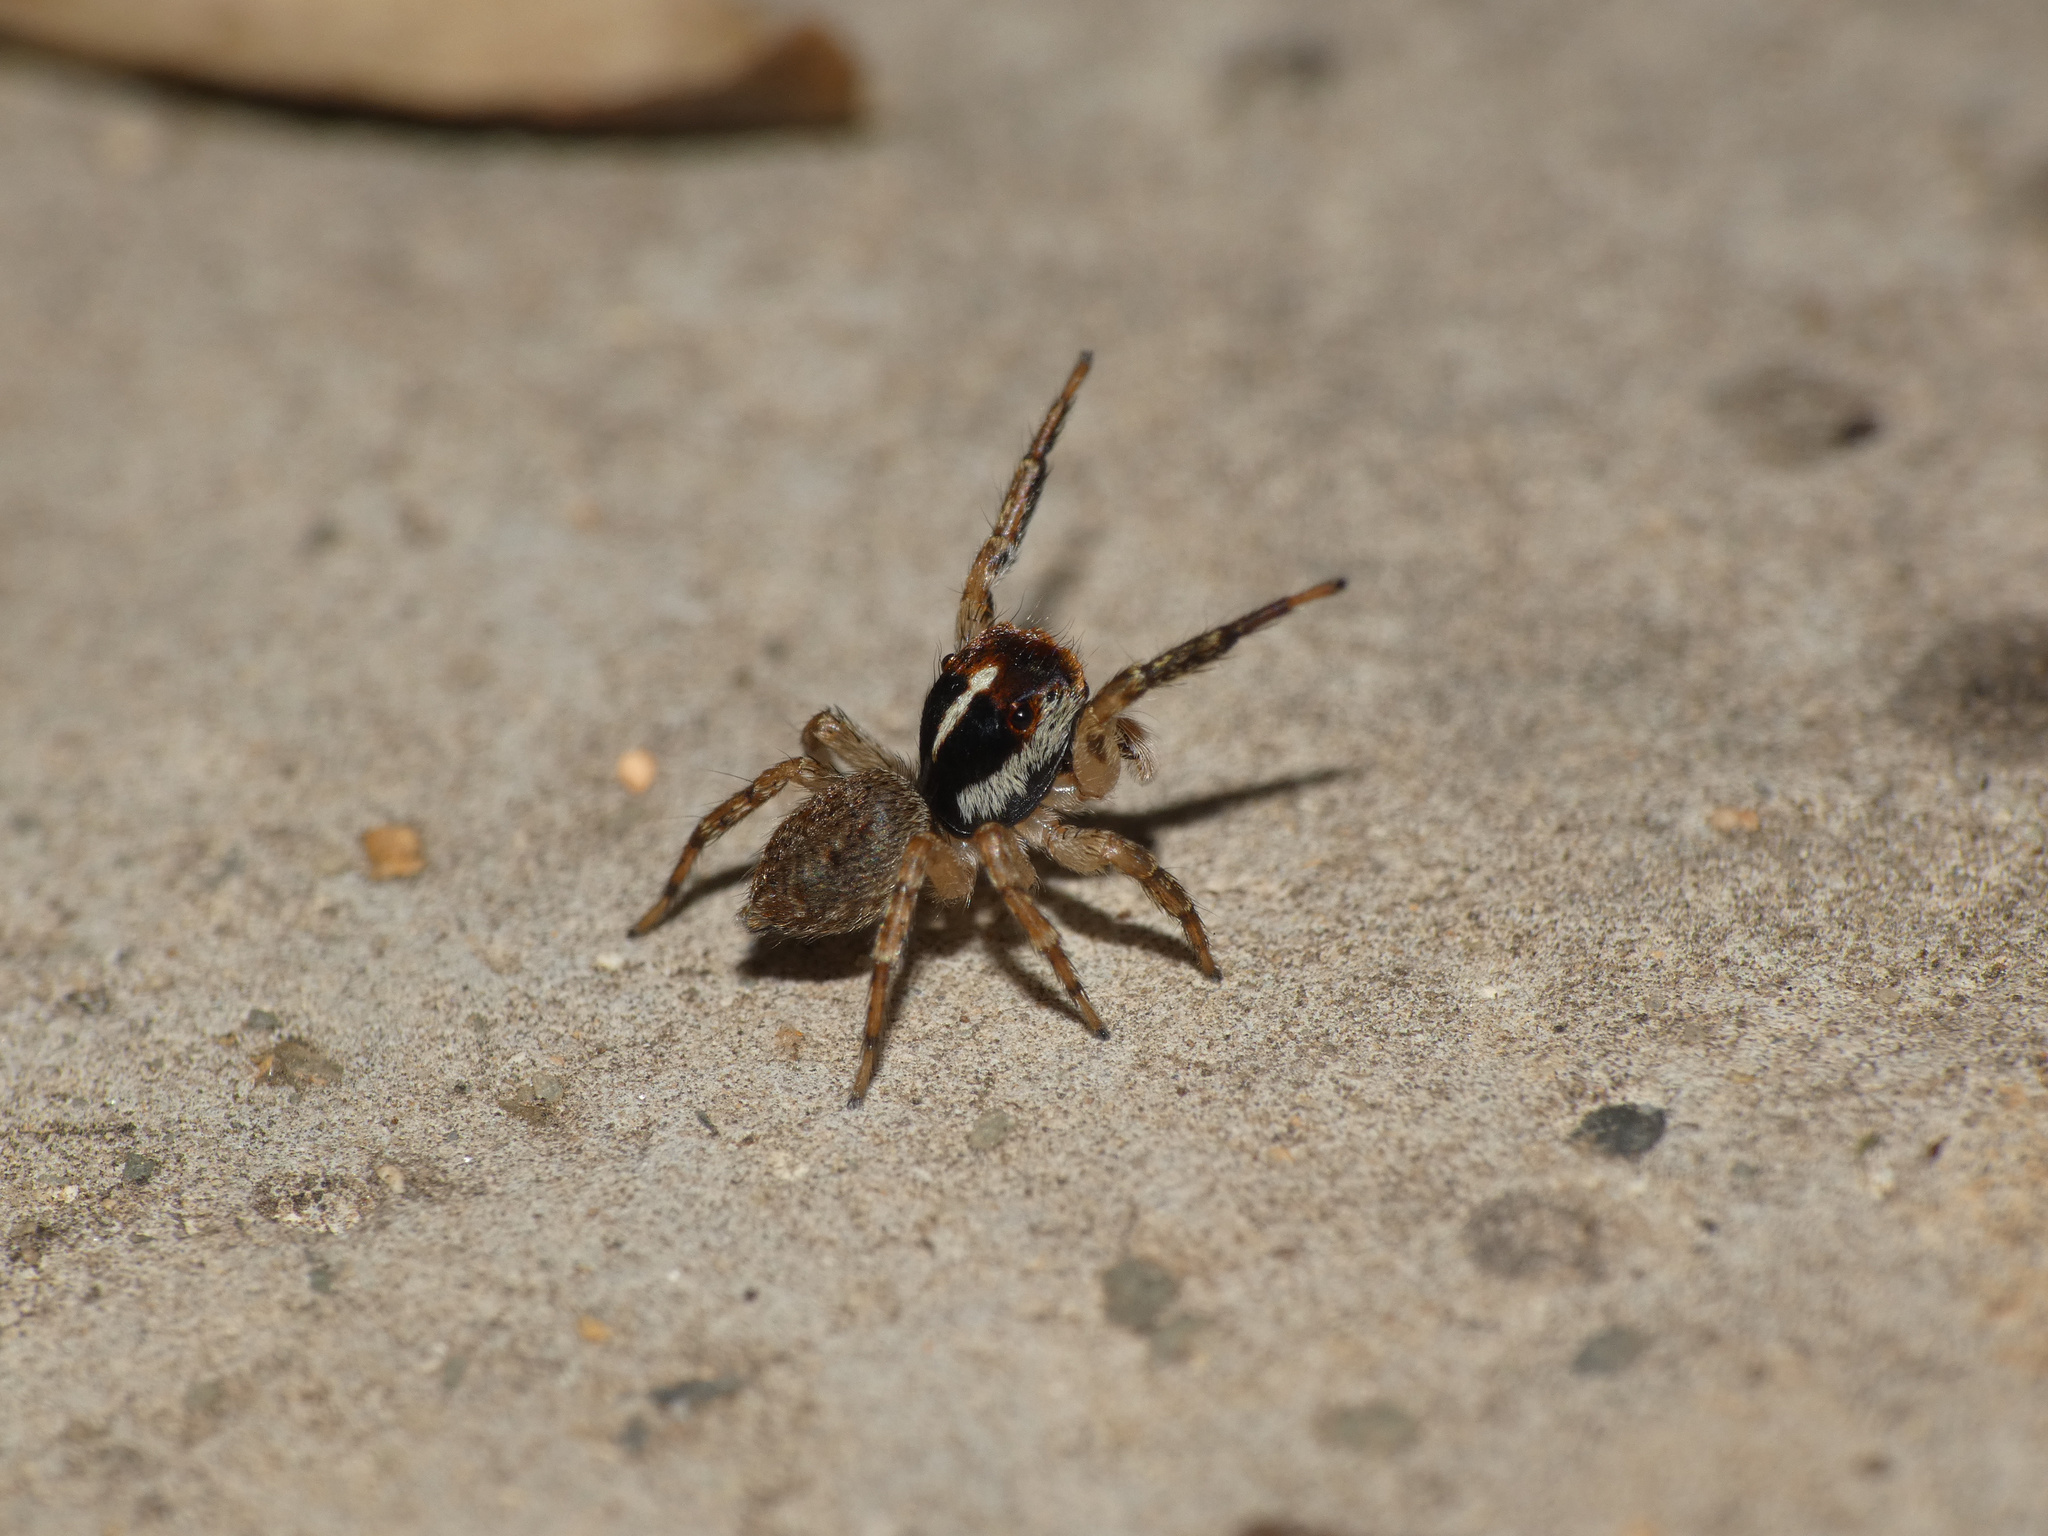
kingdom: Animalia
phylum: Arthropoda
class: Arachnida
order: Araneae
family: Salticidae
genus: Thyenula
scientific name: Thyenula munda
